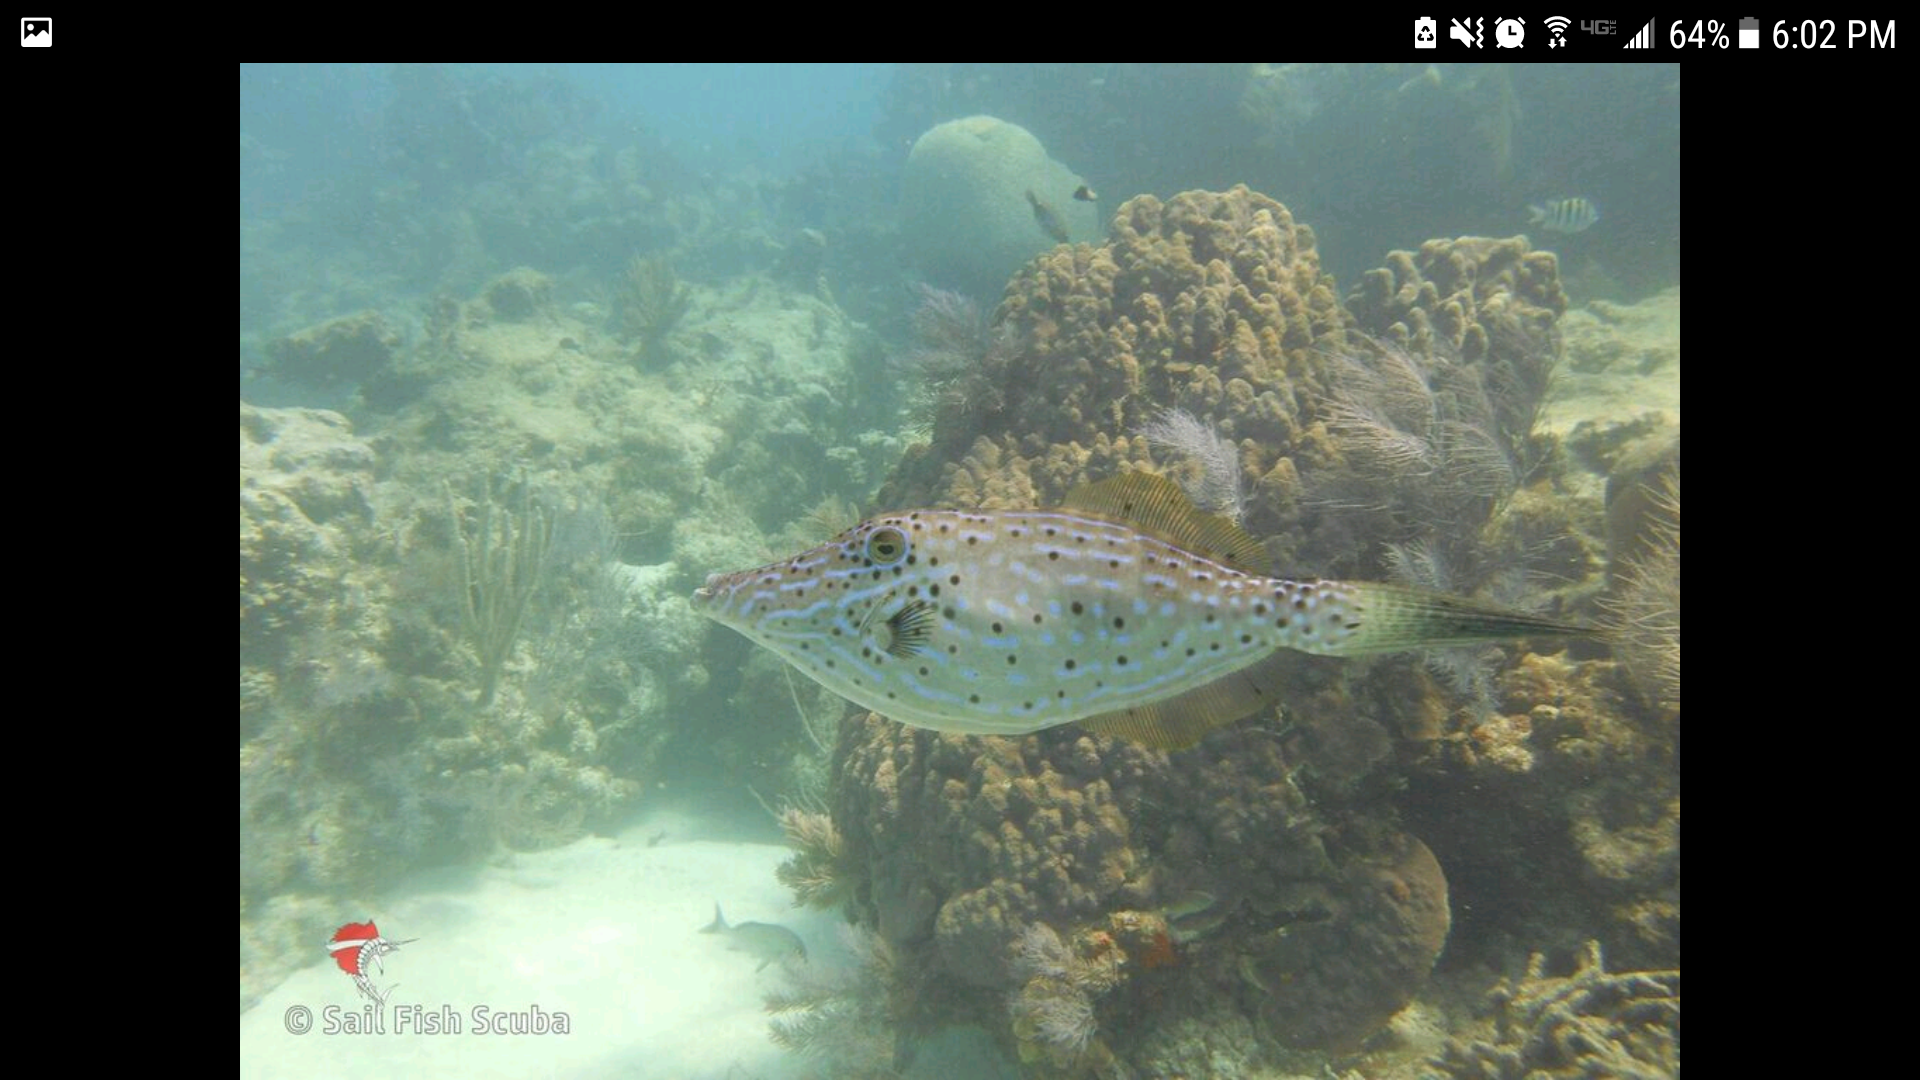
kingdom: Animalia
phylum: Chordata
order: Tetraodontiformes
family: Monacanthidae
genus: Aluterus
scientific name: Aluterus scriptus
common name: Scribbled leatherjacket filefish
